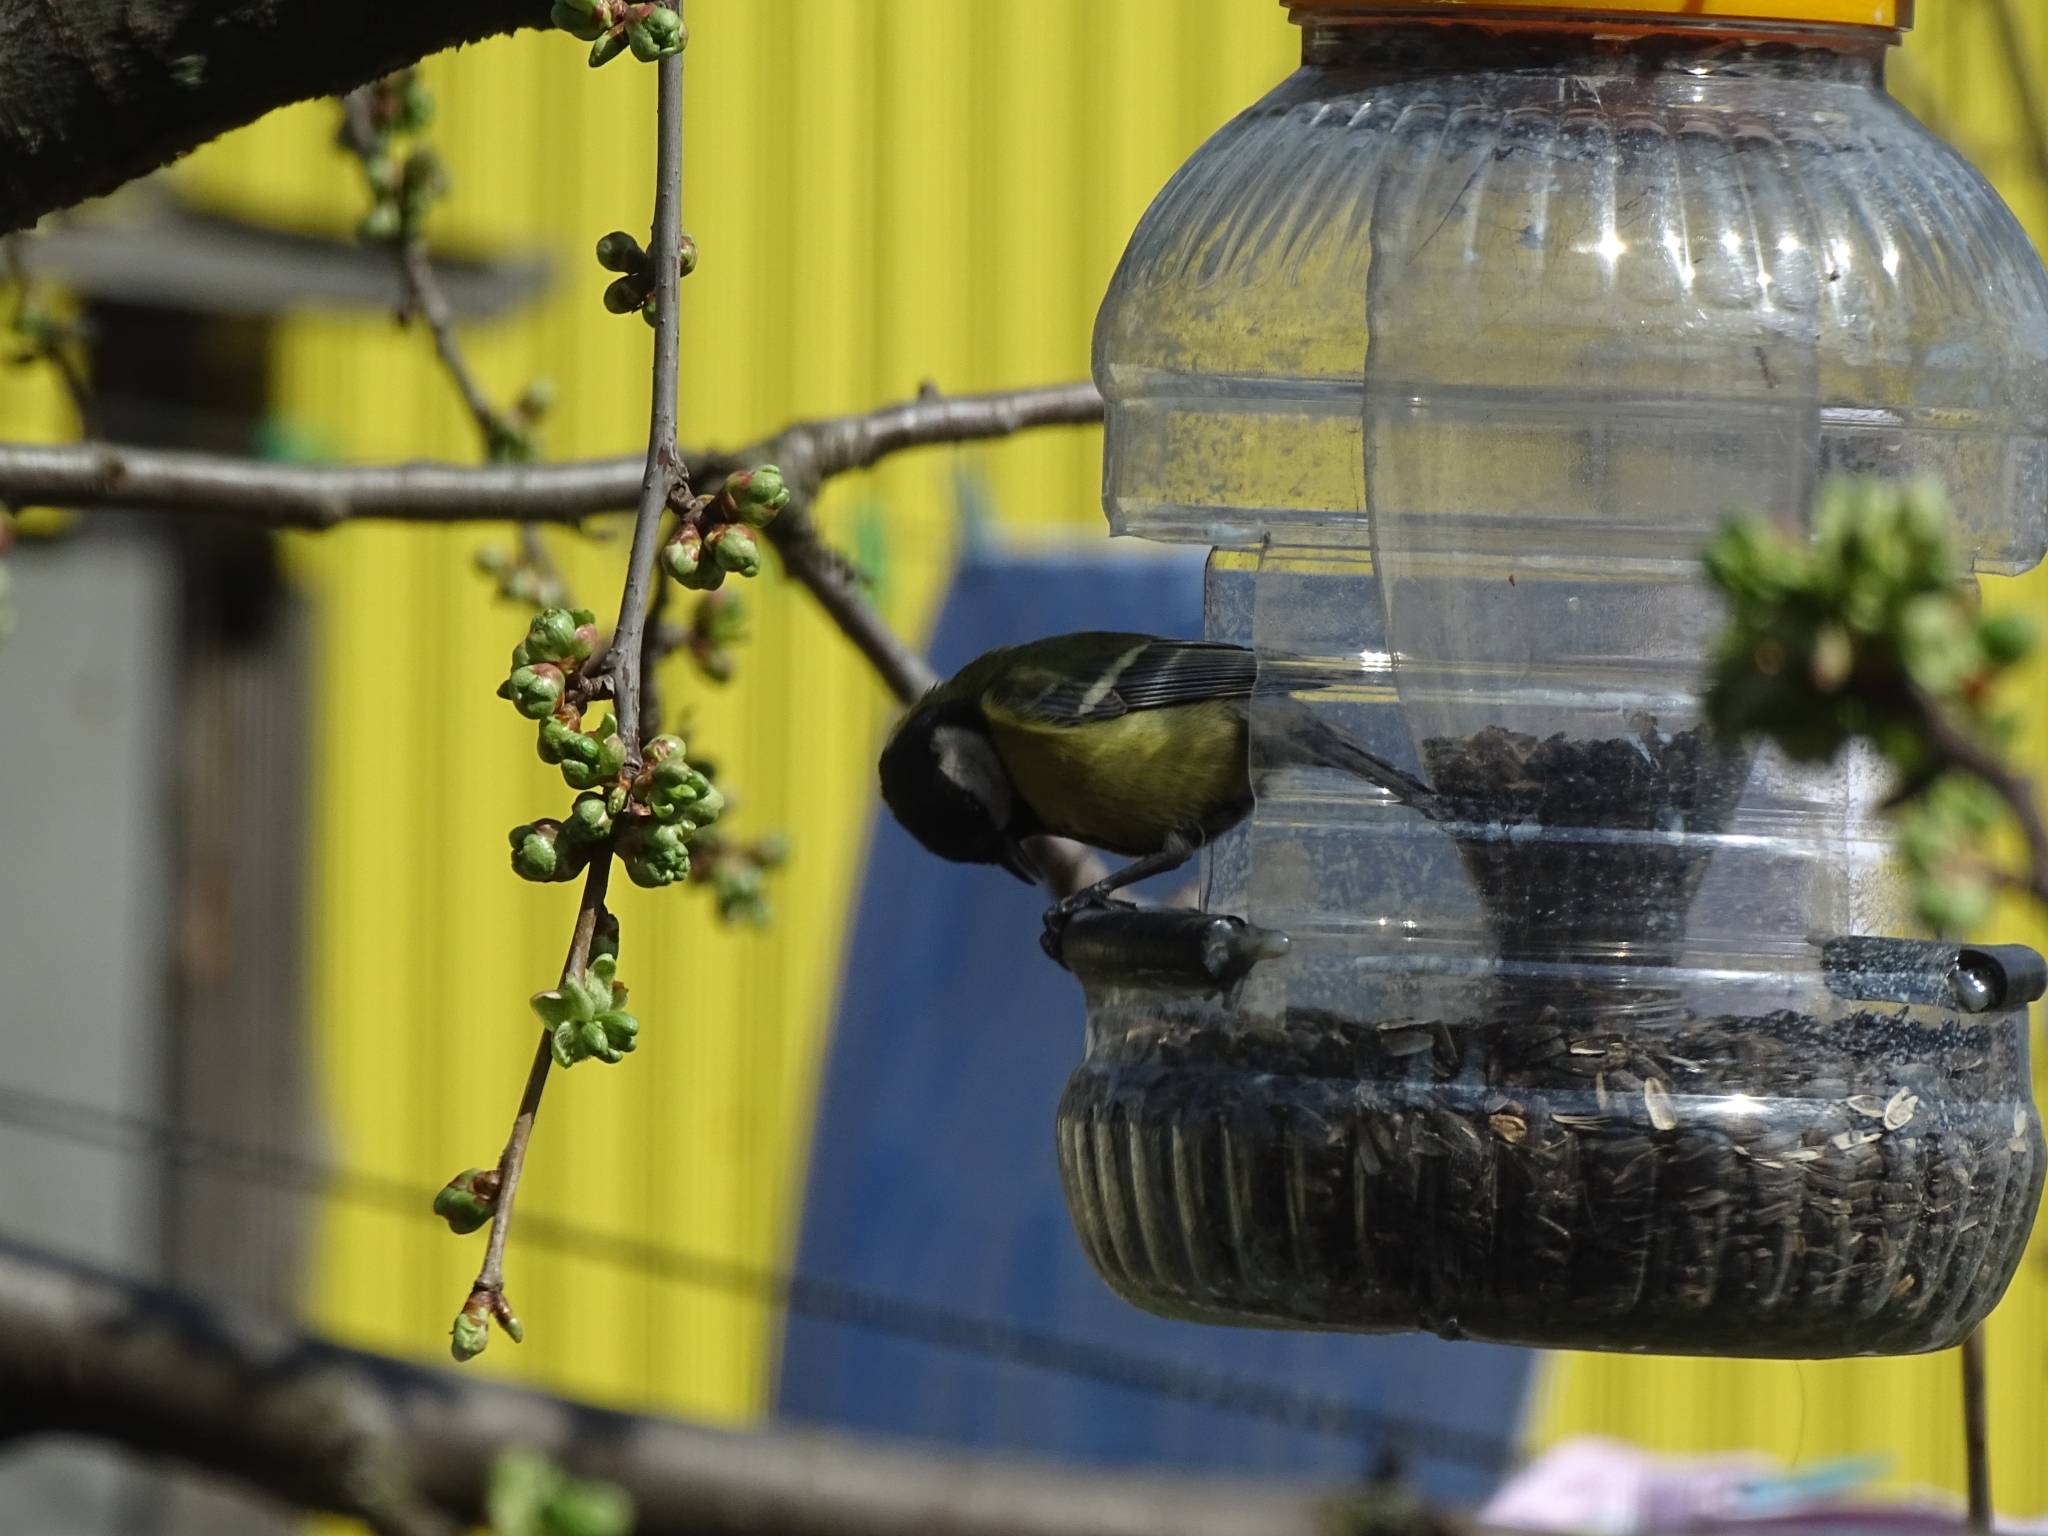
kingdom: Animalia
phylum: Chordata
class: Aves
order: Passeriformes
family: Paridae
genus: Parus
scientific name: Parus major
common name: Great tit
